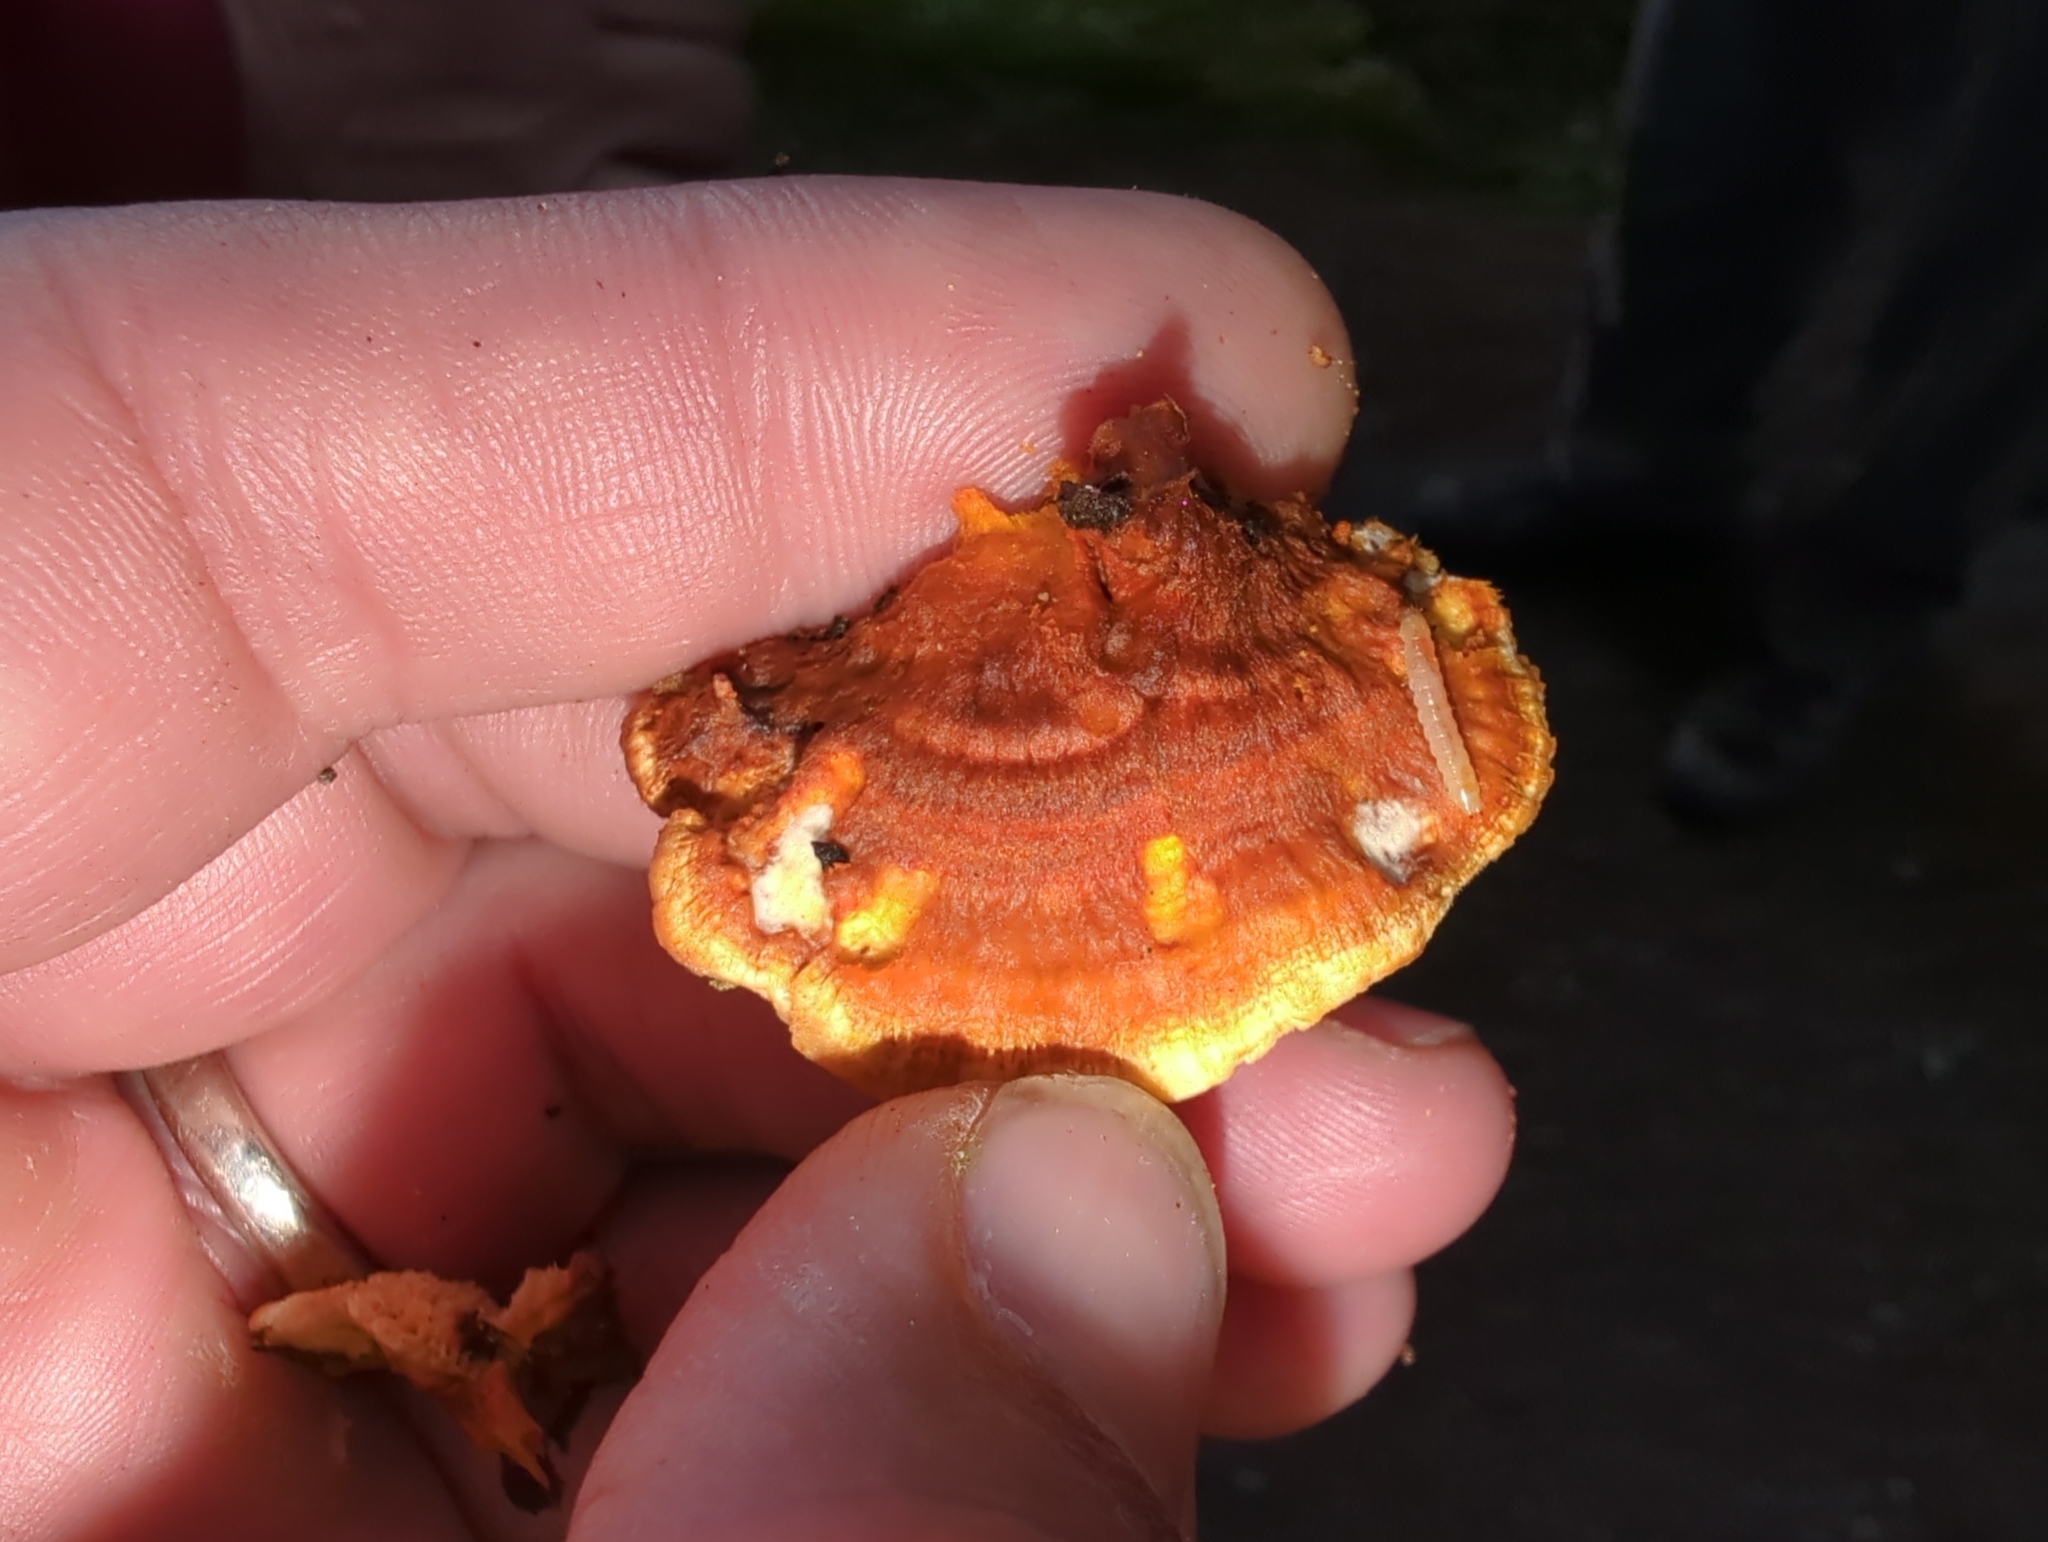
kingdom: Fungi
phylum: Basidiomycota
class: Agaricomycetes
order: Polyporales
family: Pycnoporellaceae
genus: Pycnoporellus
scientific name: Pycnoporellus fulgens
